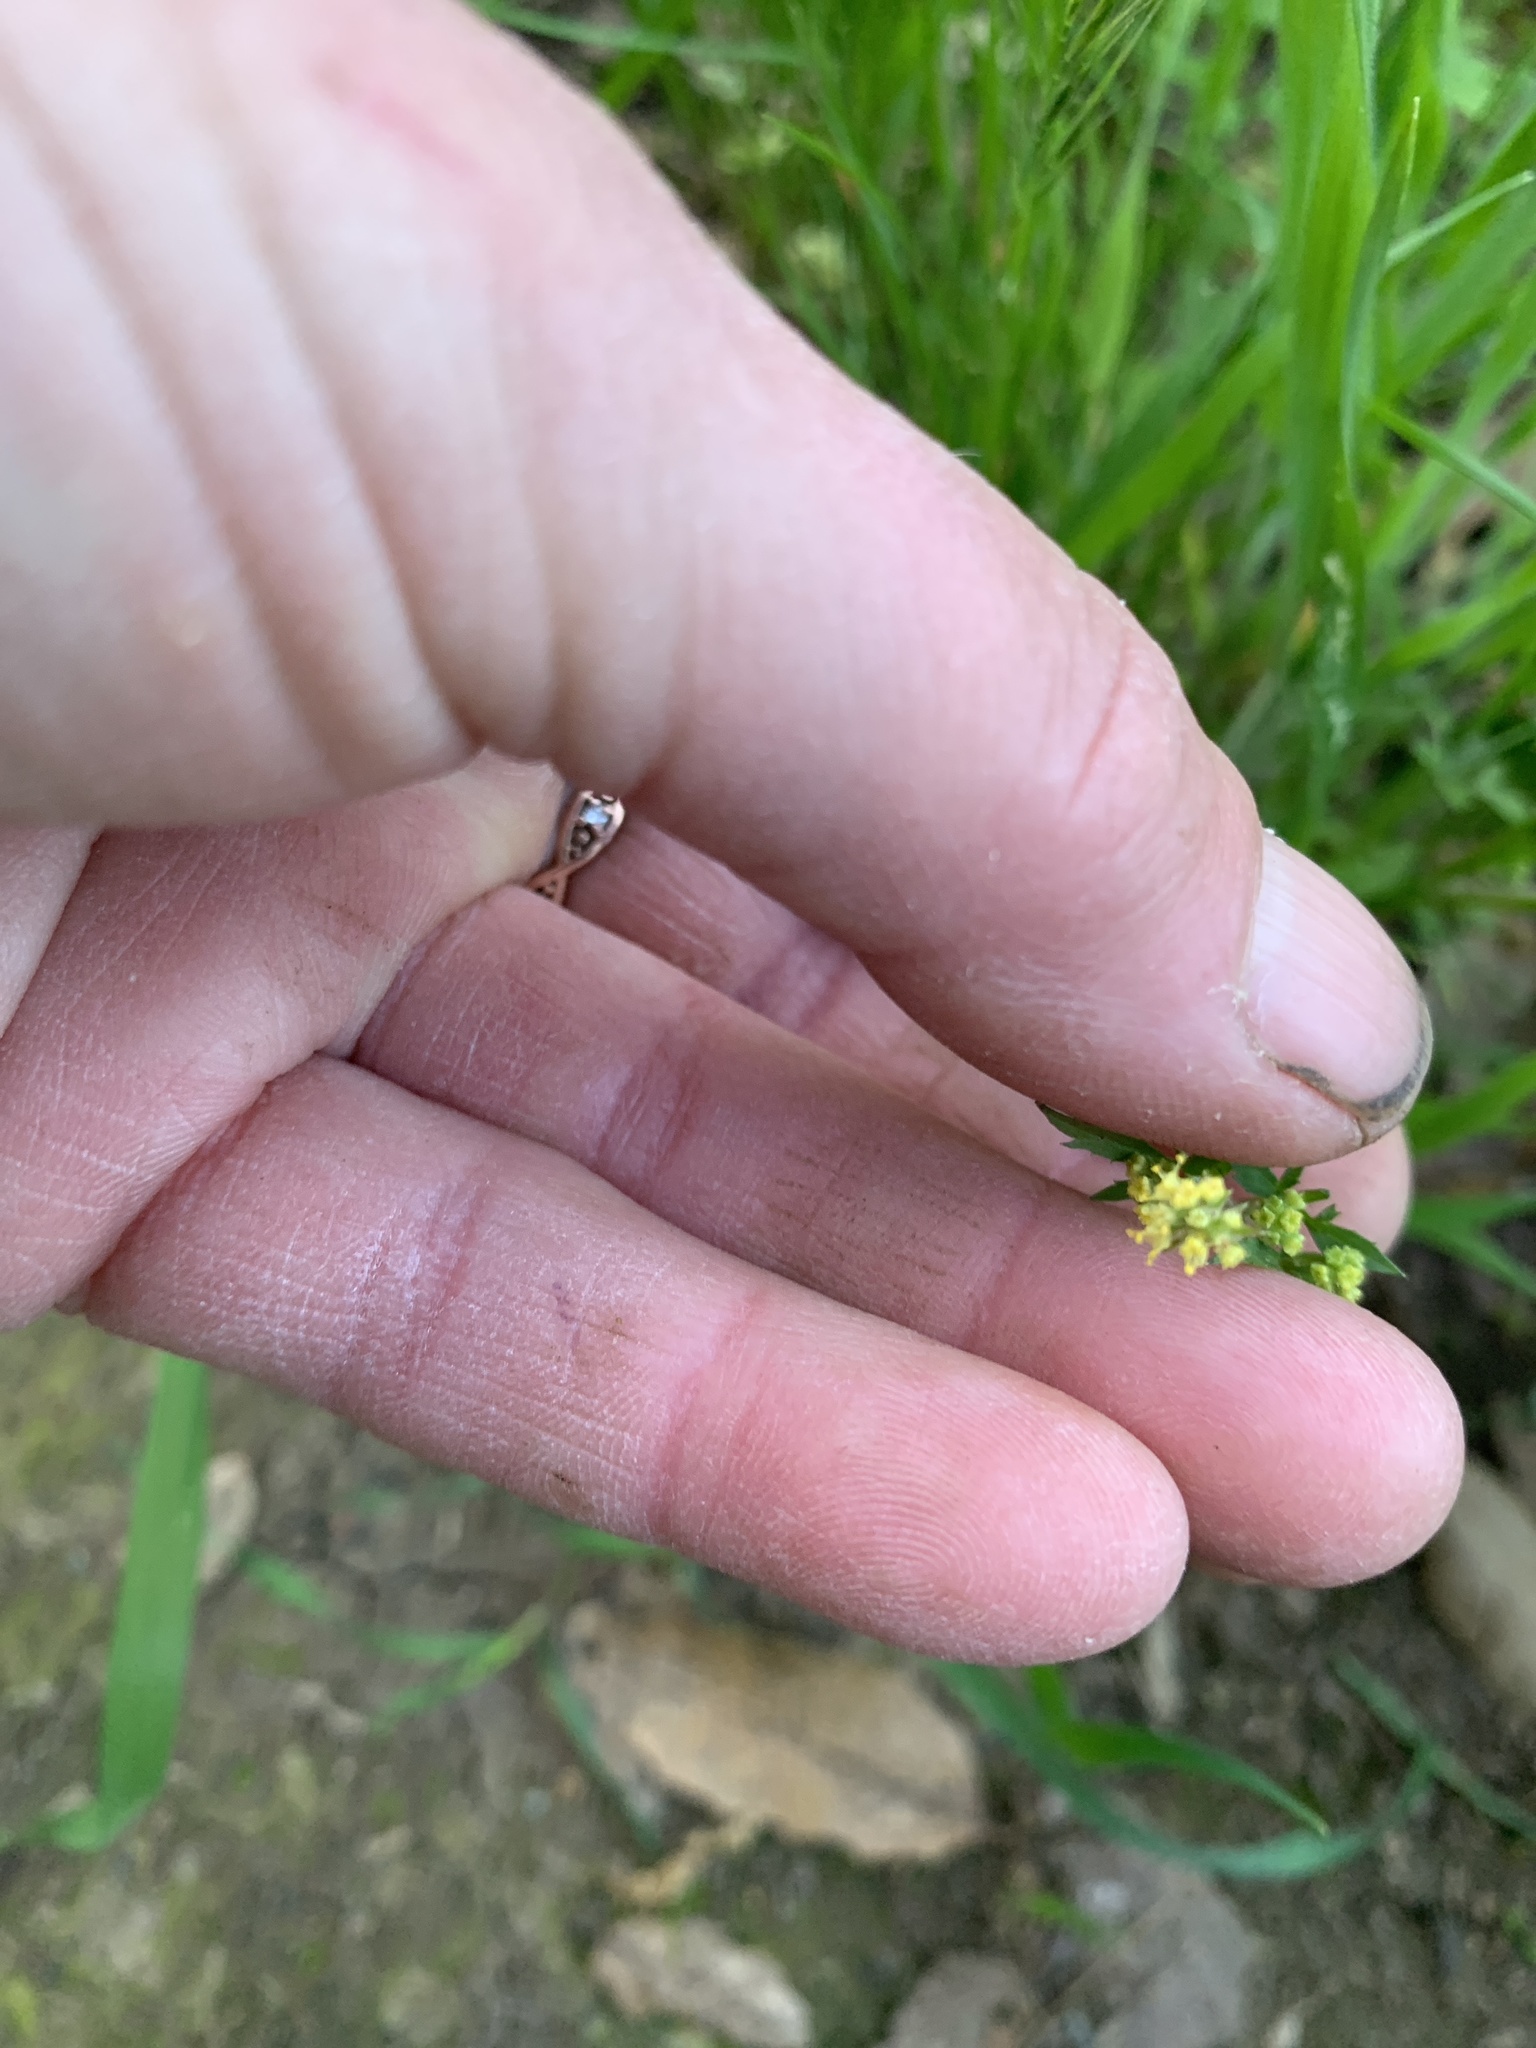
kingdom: Plantae
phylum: Tracheophyta
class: Magnoliopsida
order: Apiales
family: Apiaceae
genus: Sanicula
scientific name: Sanicula bipinnata
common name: Poison sanicle
